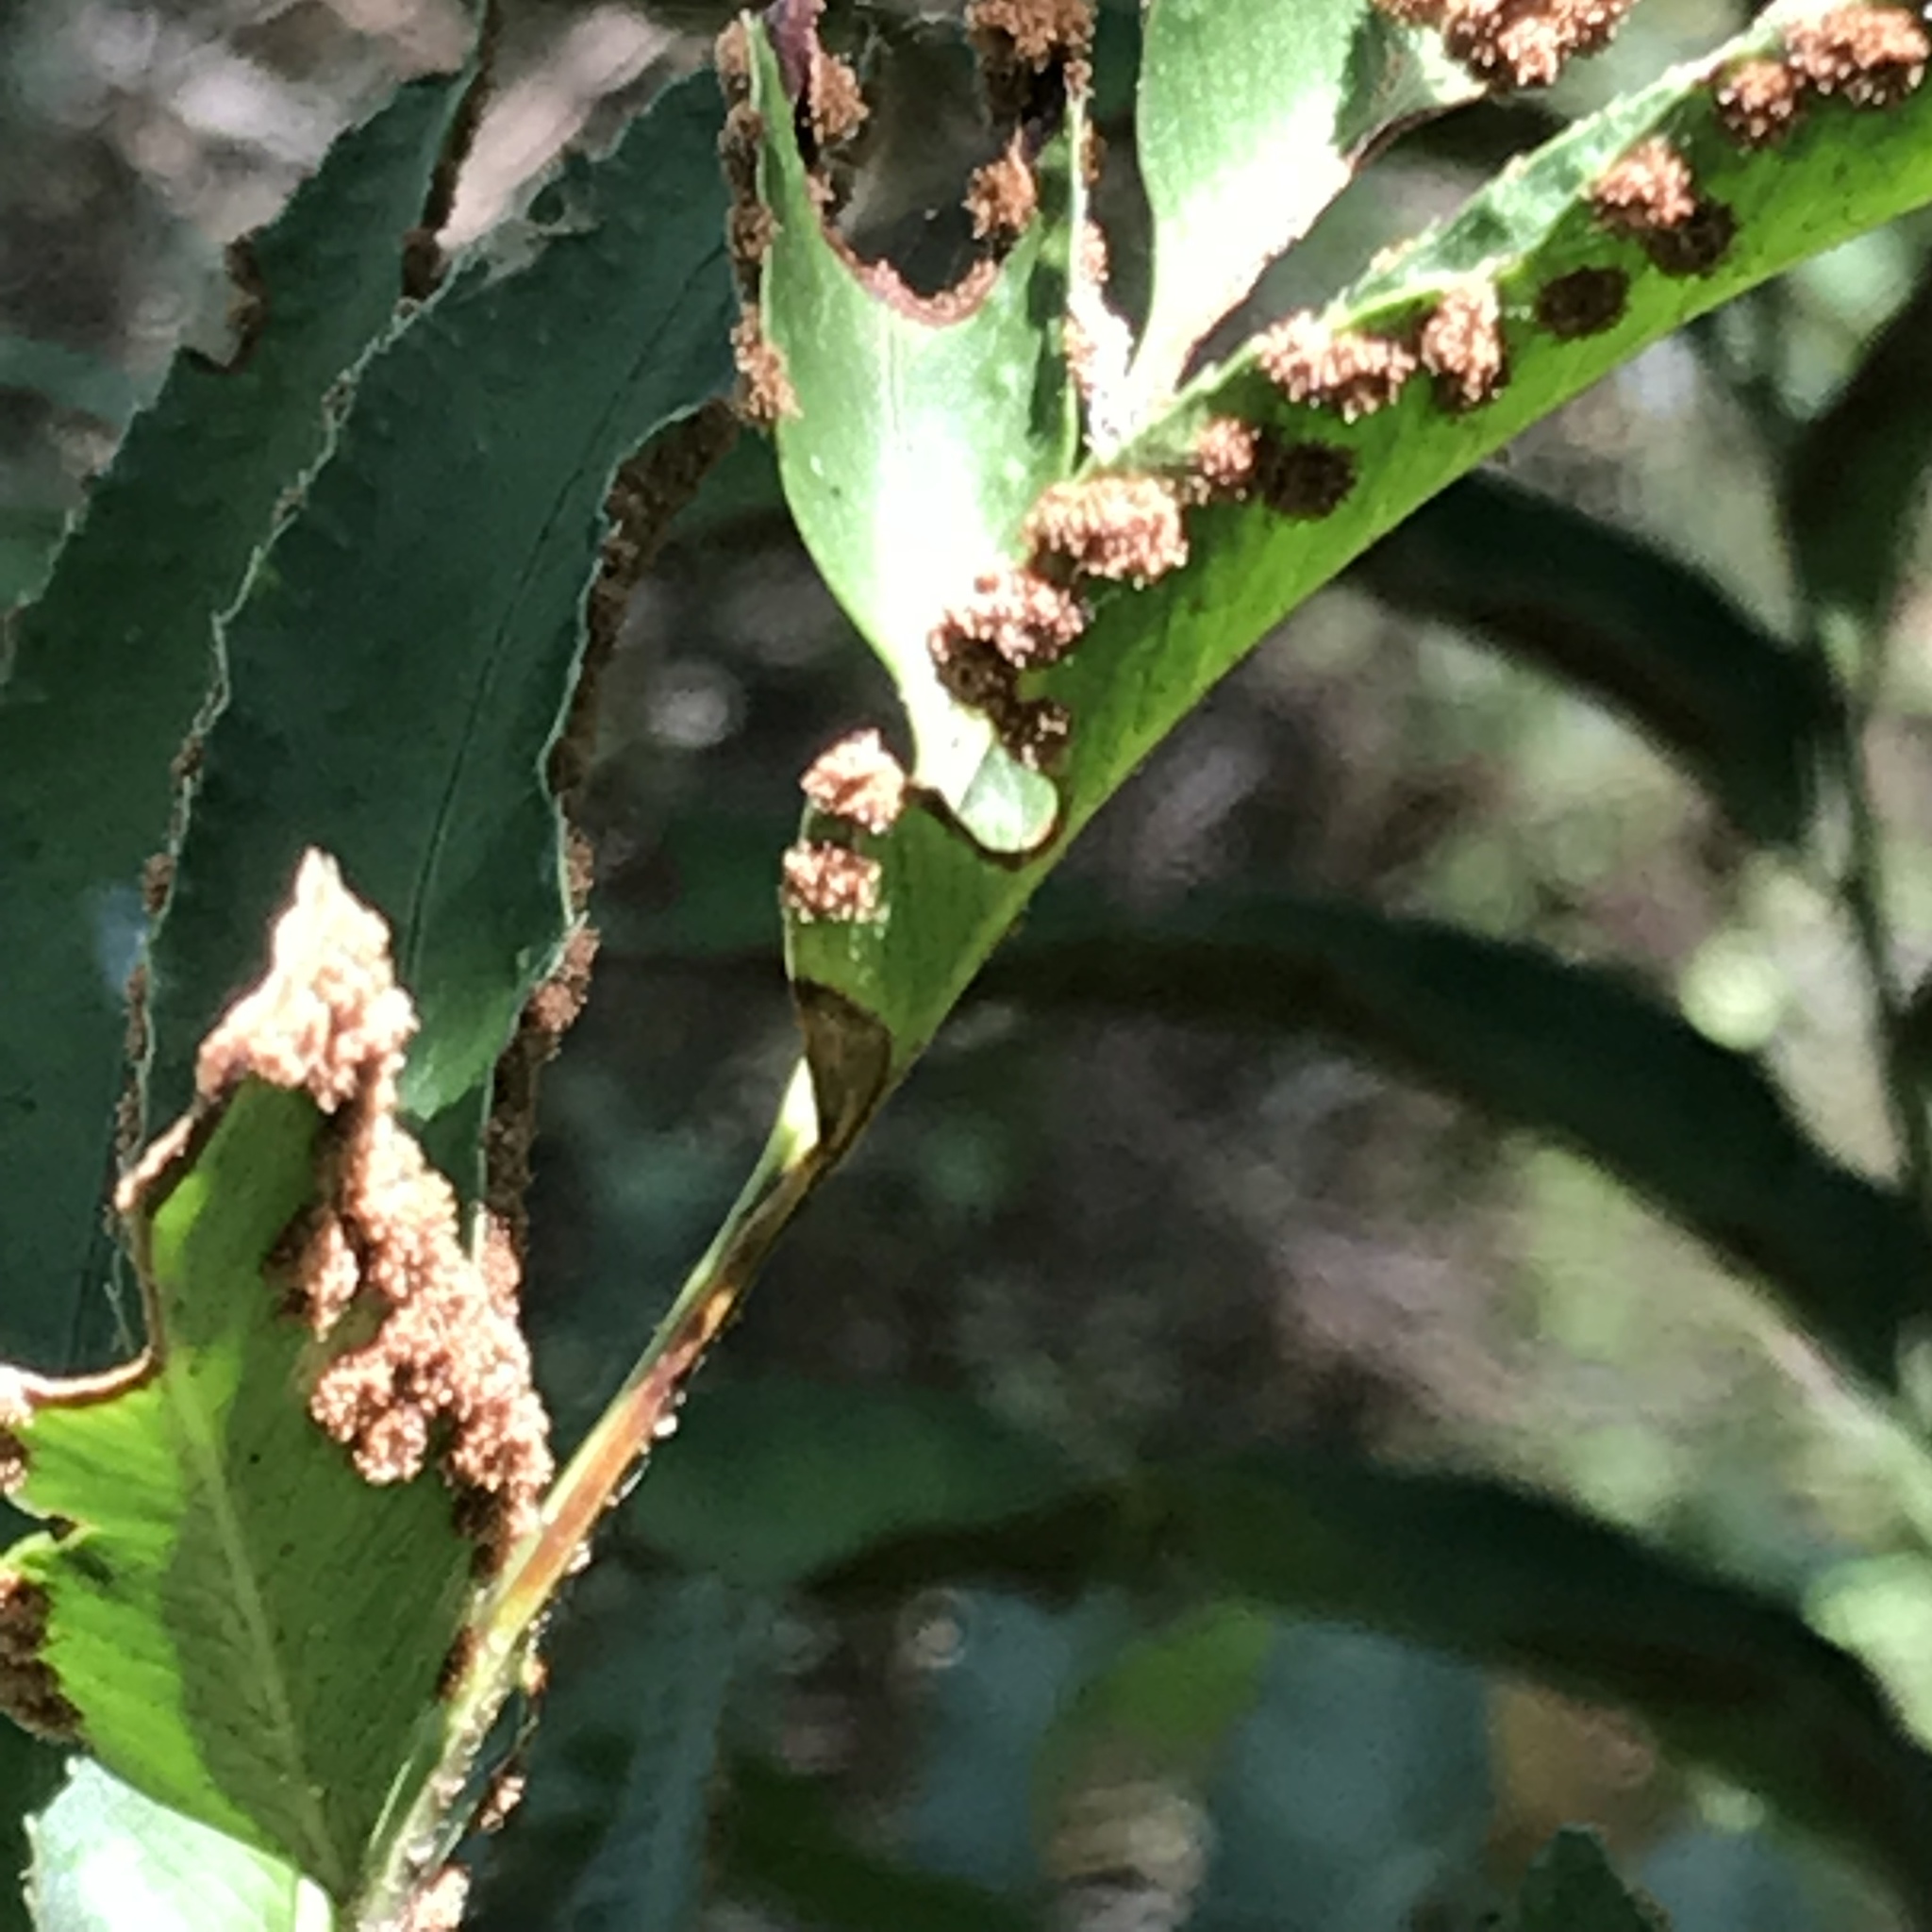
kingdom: Plantae
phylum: Tracheophyta
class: Polypodiopsida
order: Polypodiales
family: Dryopteridaceae
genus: Phanerophlebia
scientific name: Phanerophlebia umbonata
